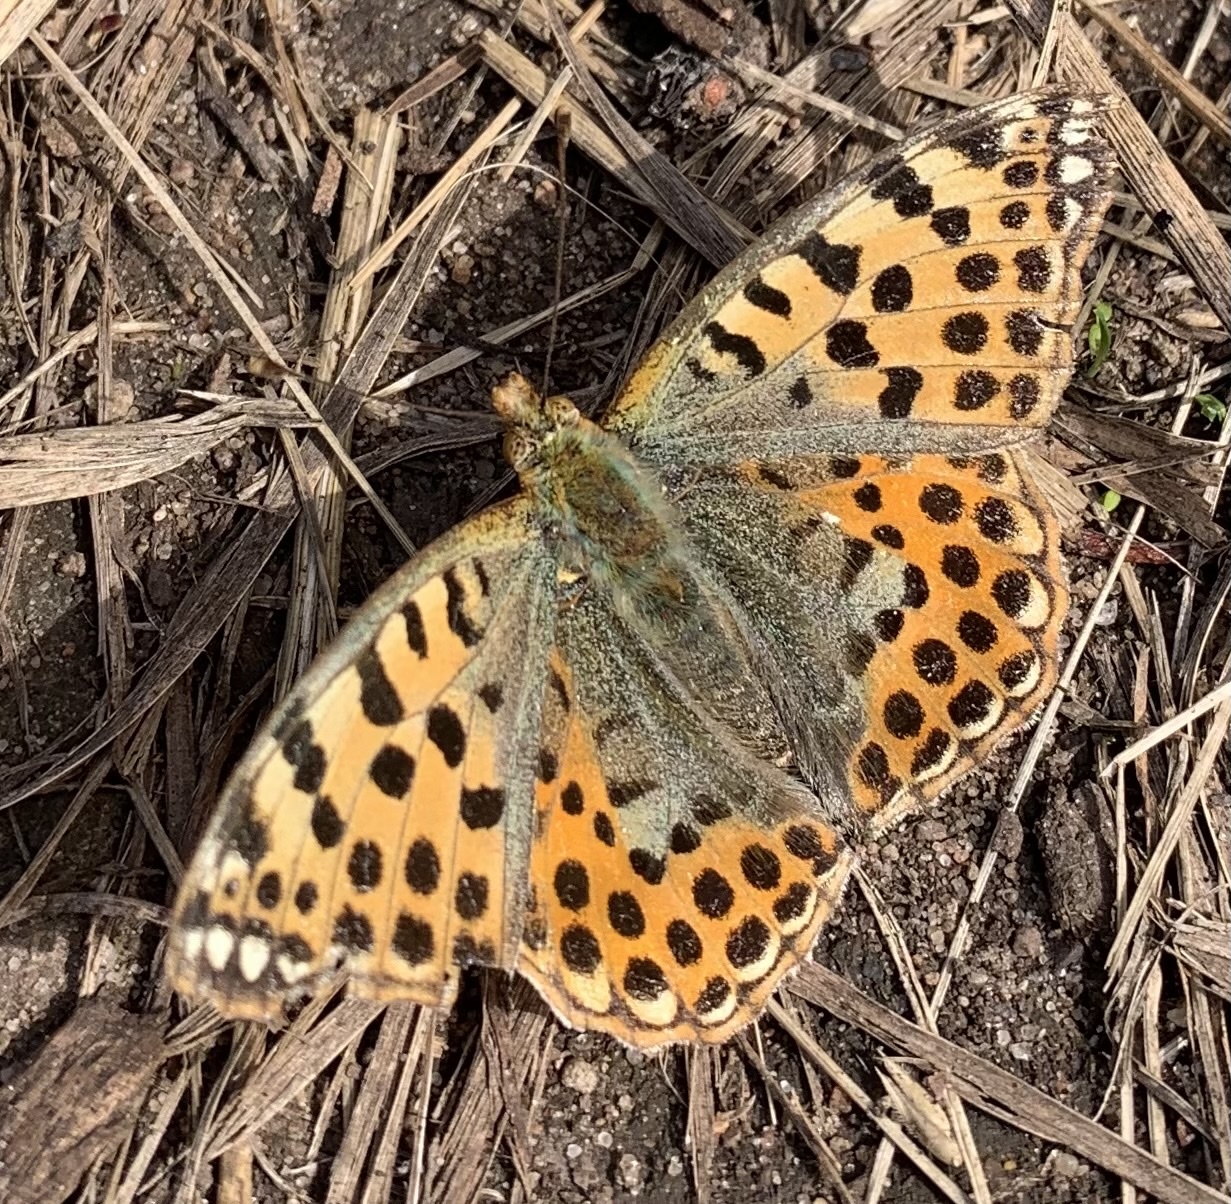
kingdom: Animalia
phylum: Arthropoda
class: Insecta
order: Lepidoptera
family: Nymphalidae
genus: Issoria
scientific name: Issoria lathonia
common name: Queen of spain fritillary
